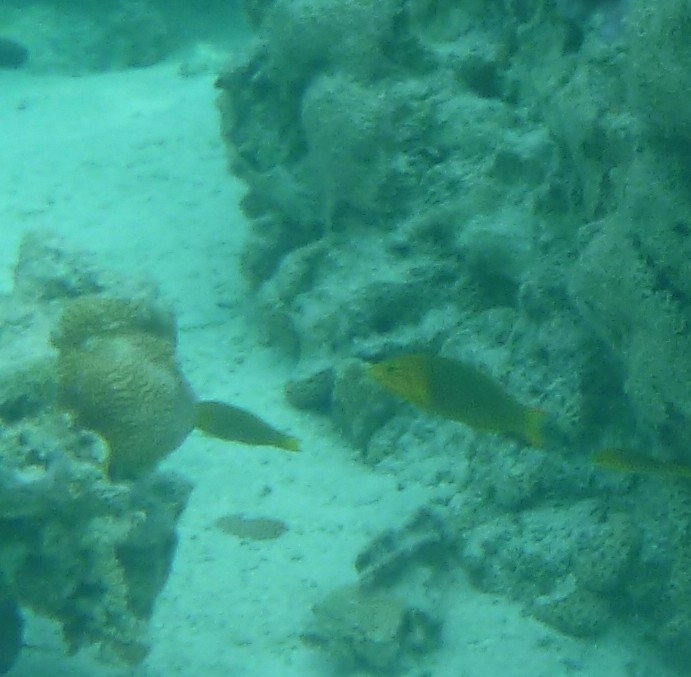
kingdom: Animalia
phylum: Chordata
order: Perciformes
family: Labridae
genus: Thalassoma
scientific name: Thalassoma lutescens
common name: Green moon wrasse
